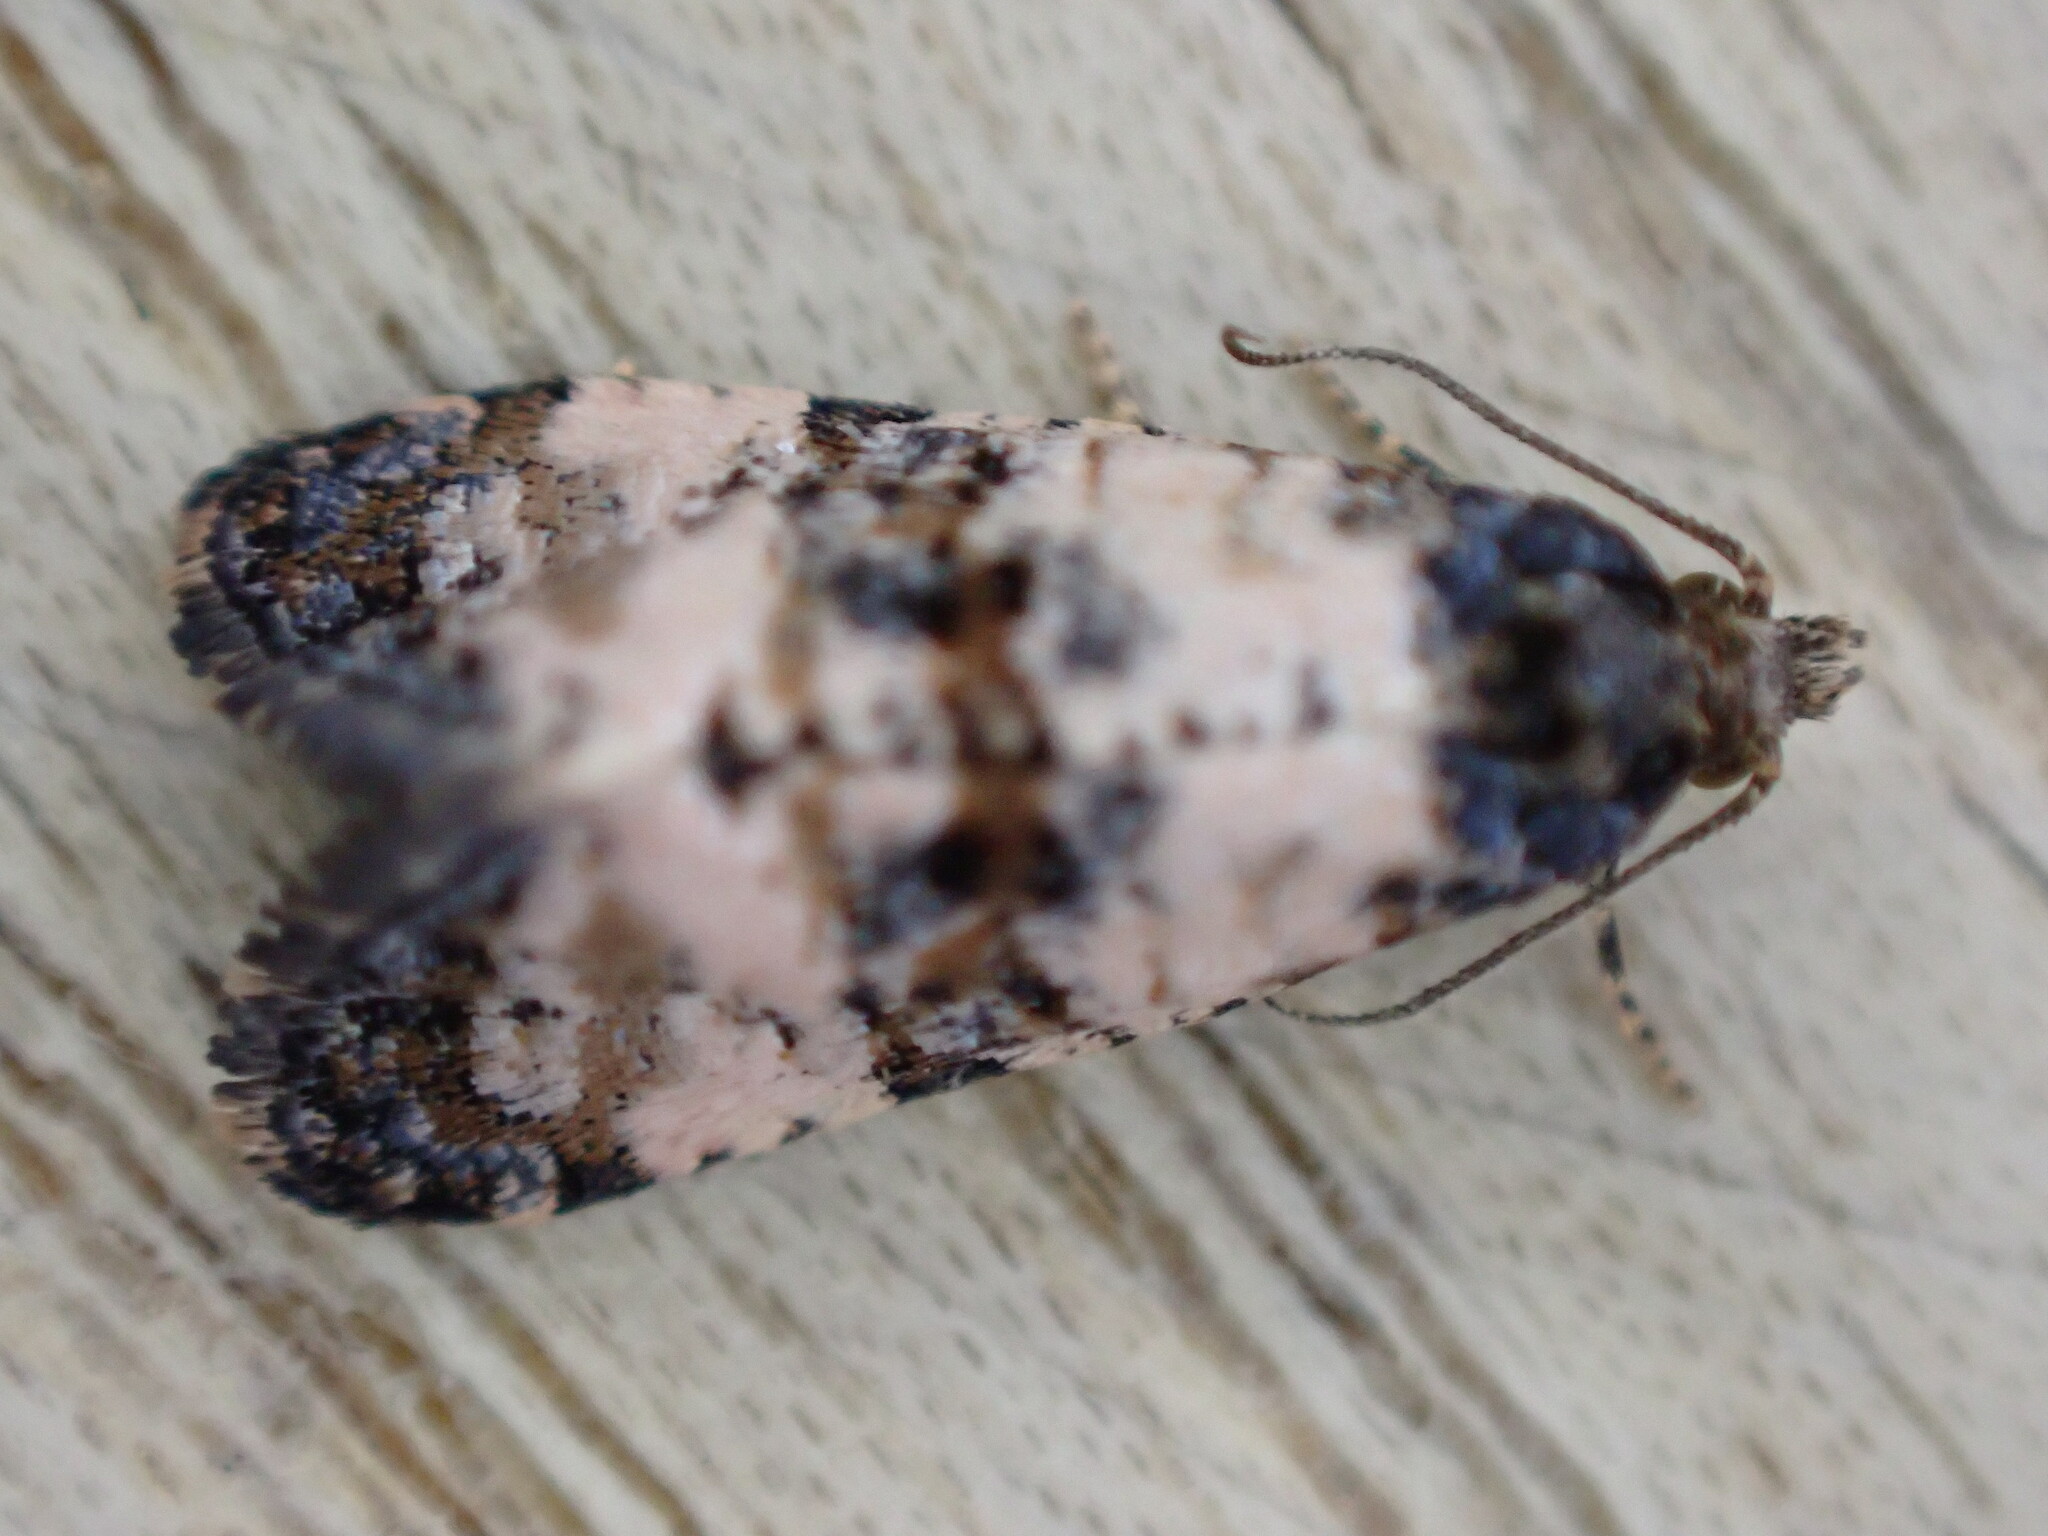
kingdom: Animalia
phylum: Arthropoda
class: Insecta
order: Lepidoptera
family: Tortricidae
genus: Cochylis
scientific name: Cochylis atricapitana
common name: Tortricid moth
